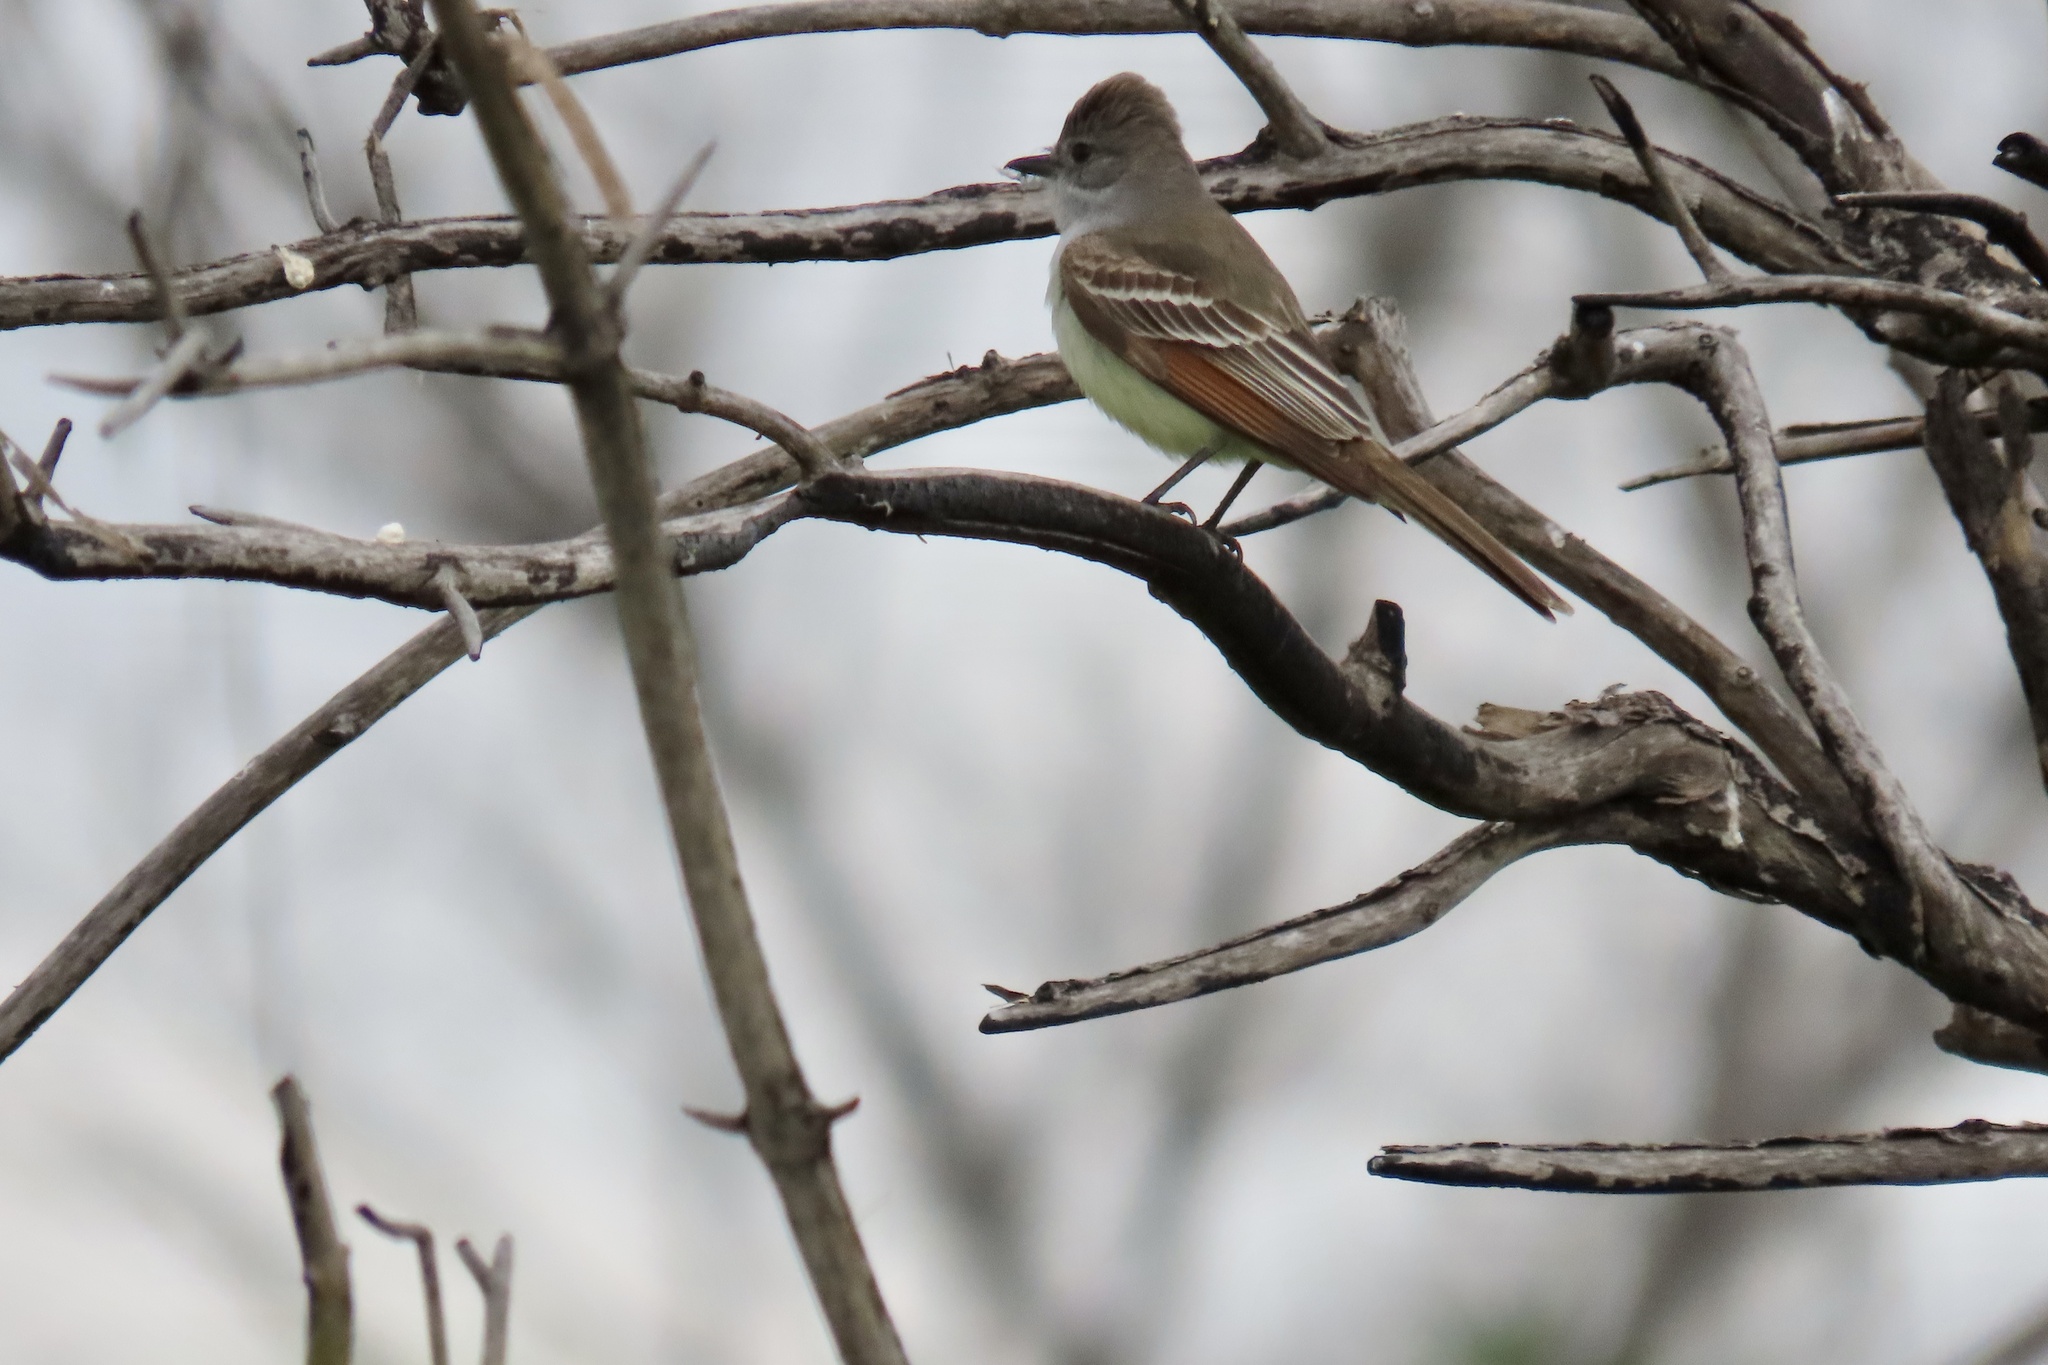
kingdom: Animalia
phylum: Chordata
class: Aves
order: Passeriformes
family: Tyrannidae
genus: Myiarchus
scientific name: Myiarchus cinerascens
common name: Ash-throated flycatcher
